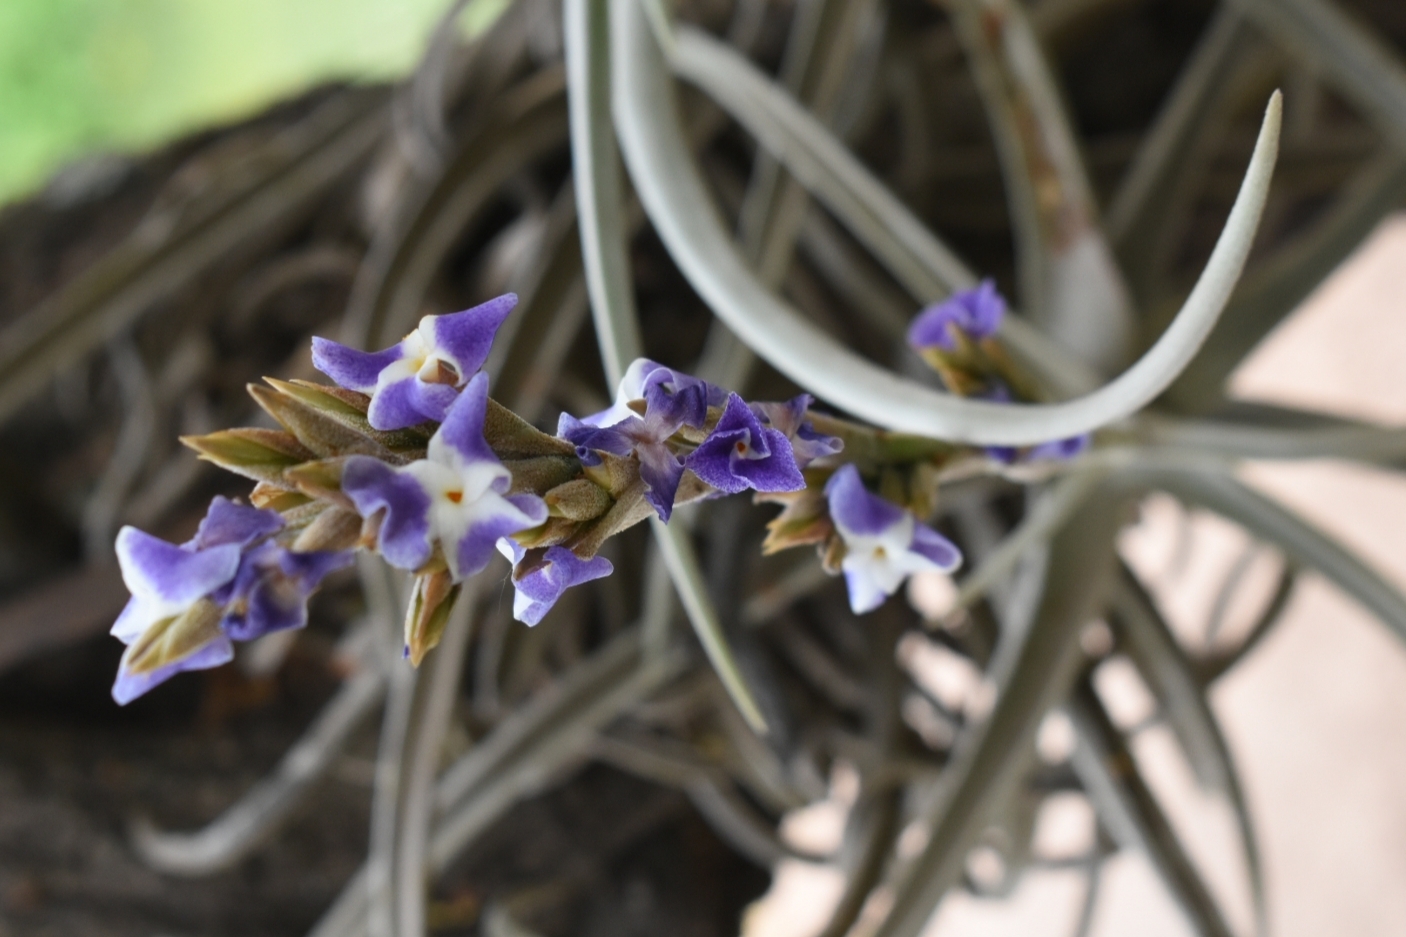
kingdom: Plantae
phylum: Tracheophyta
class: Liliopsida
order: Poales
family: Bromeliaceae
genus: Tillandsia
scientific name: Tillandsia duratii
